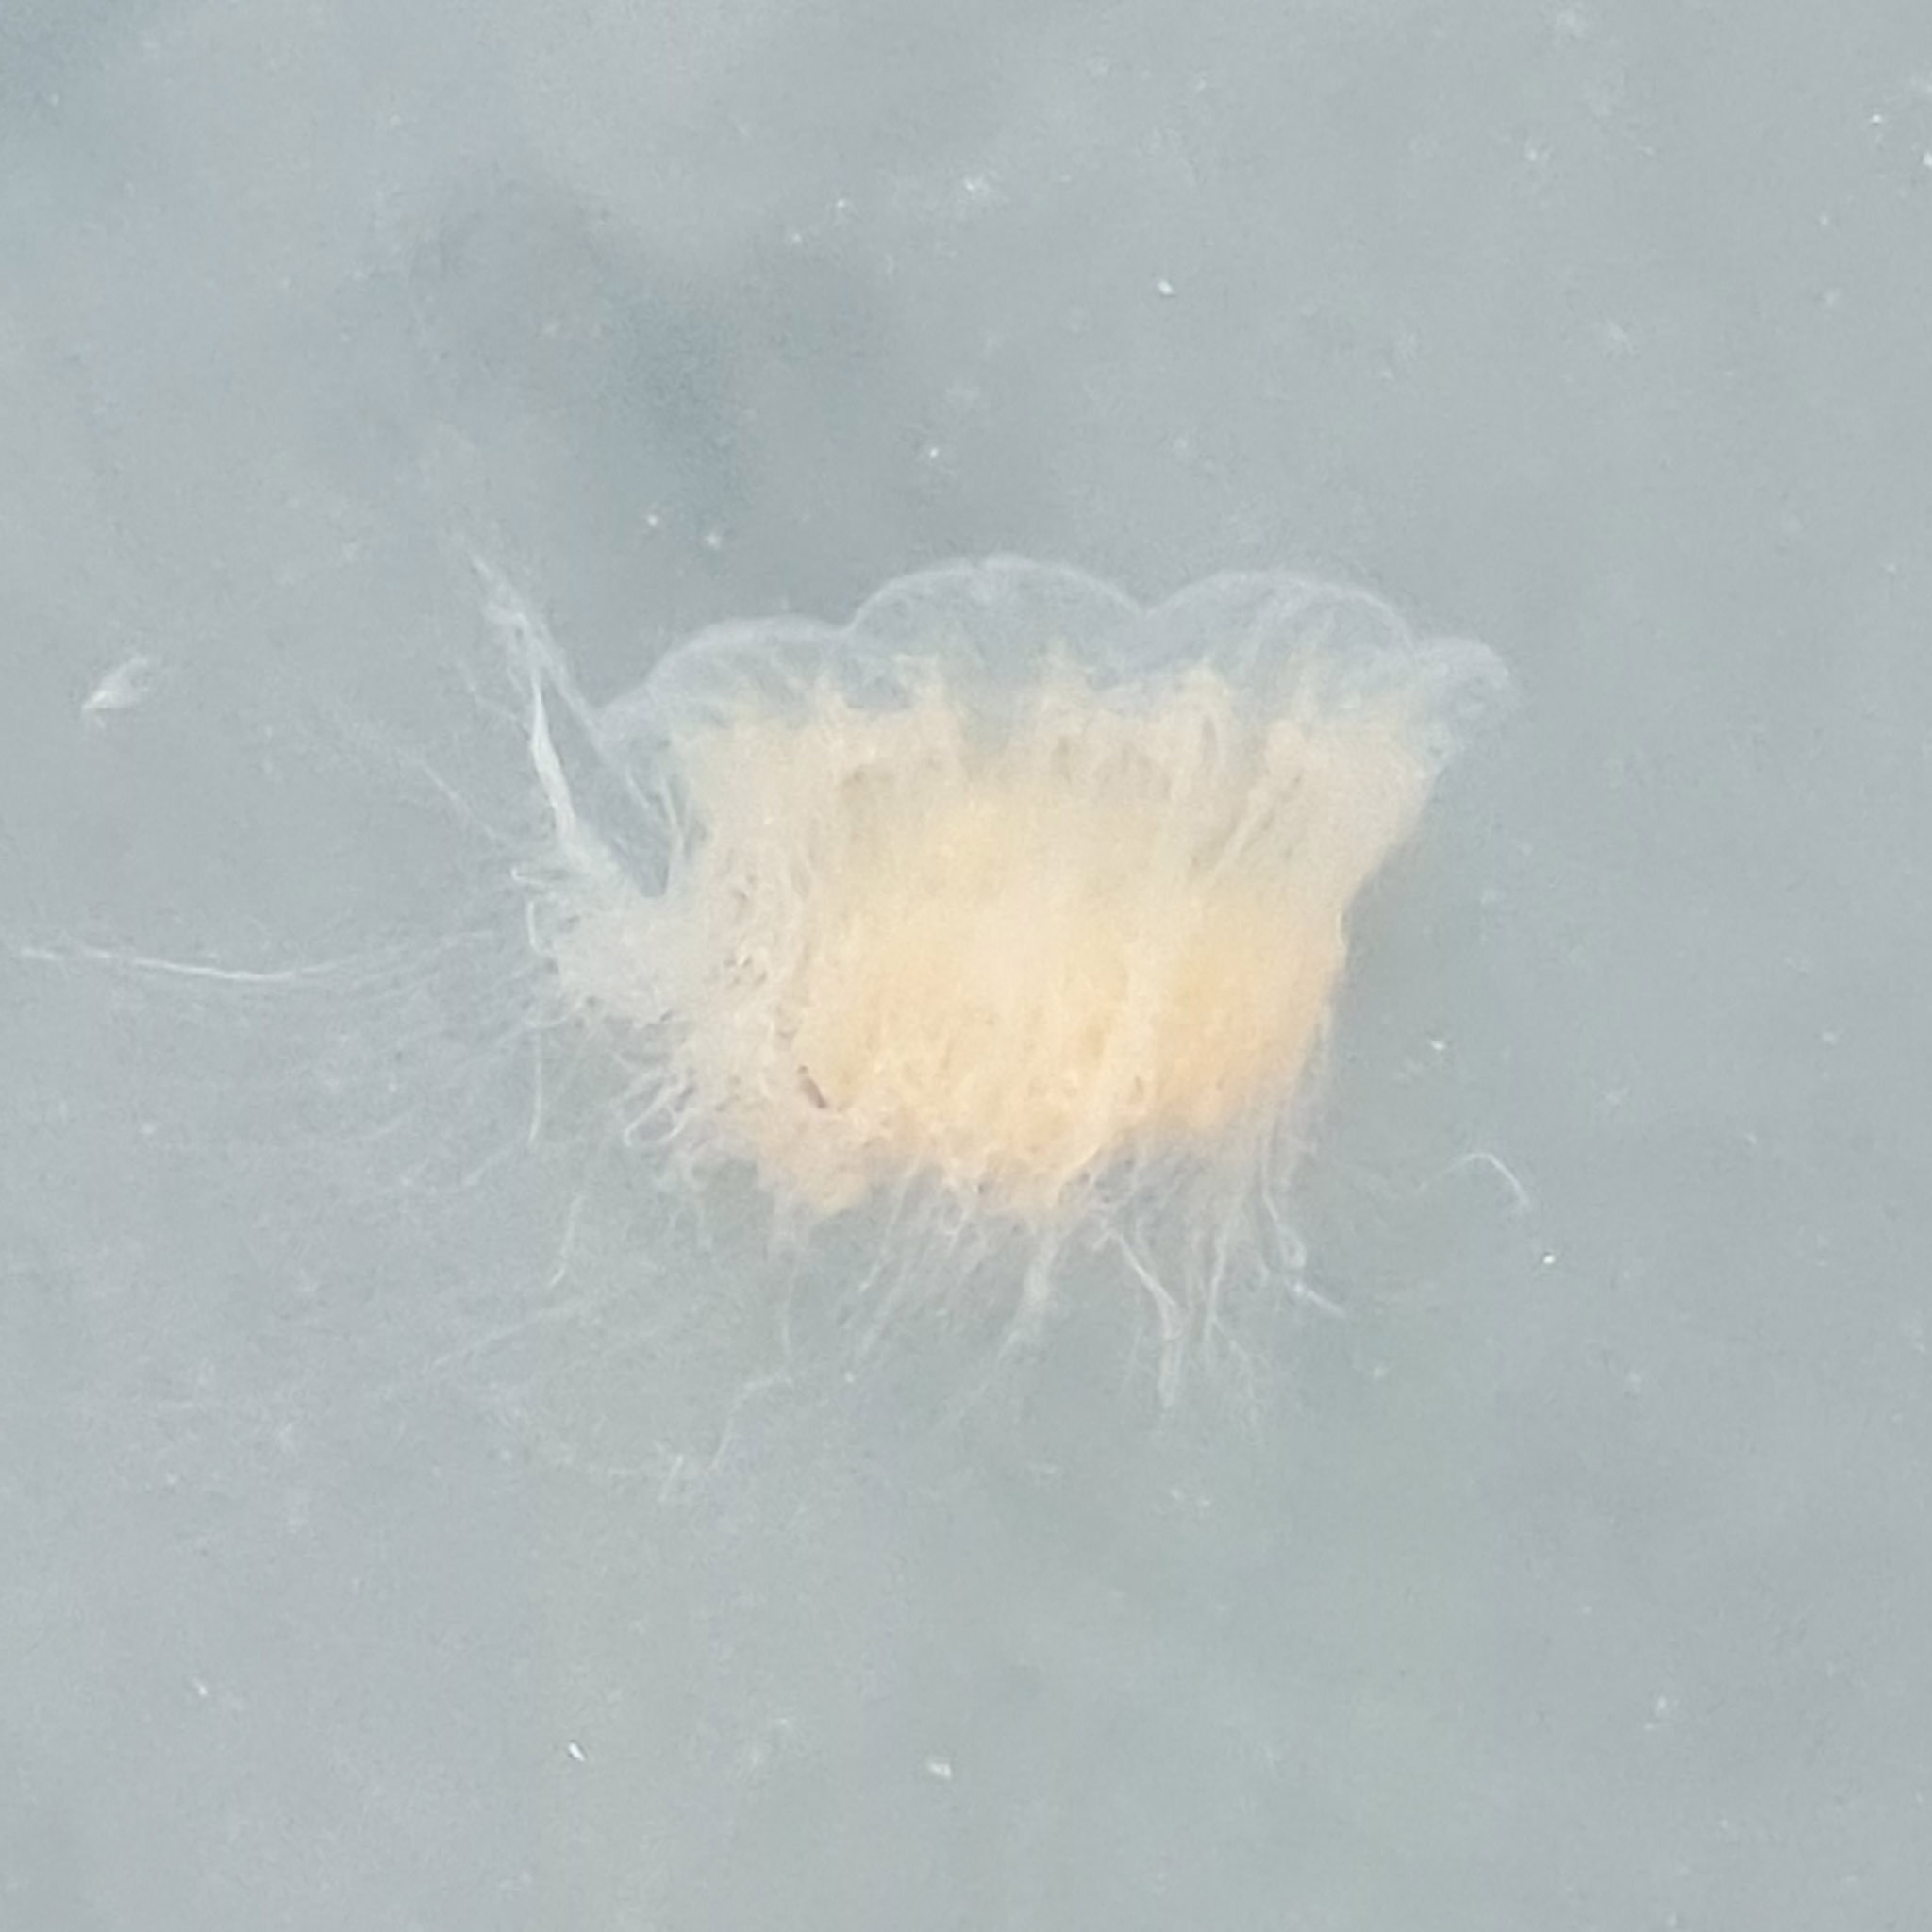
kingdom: Animalia
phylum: Cnidaria
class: Scyphozoa
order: Semaeostomeae
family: Cyaneidae
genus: Cyanea
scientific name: Cyanea capillata
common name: Lion's mane jellyfish
